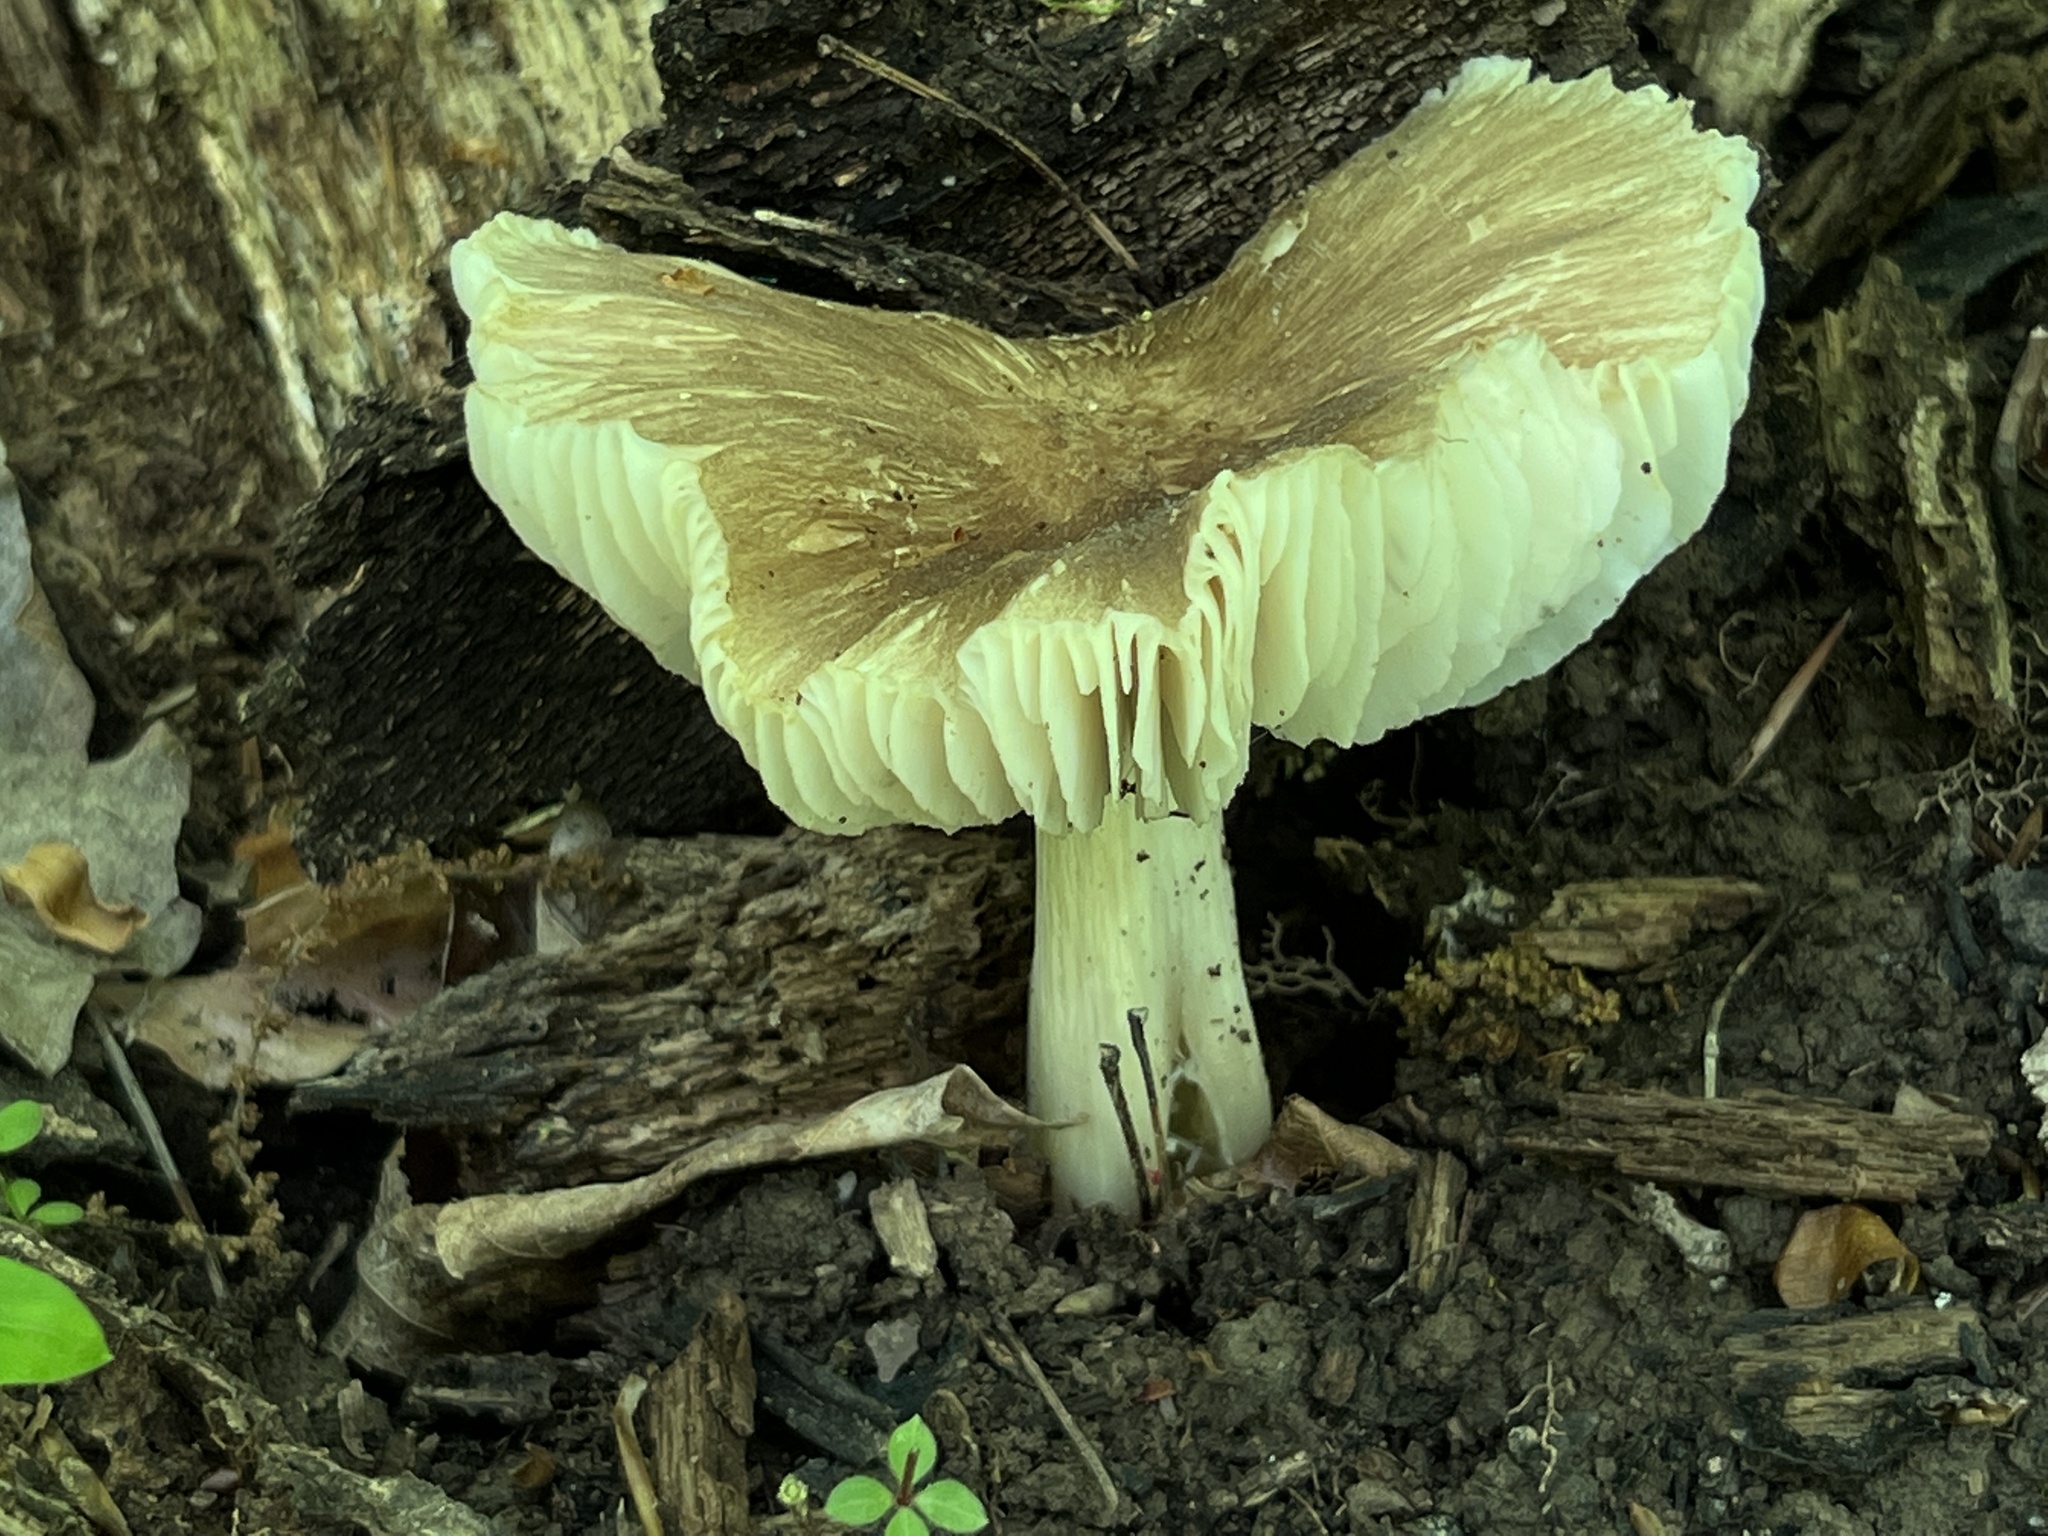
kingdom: Fungi
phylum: Basidiomycota
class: Agaricomycetes
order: Agaricales
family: Tricholomataceae
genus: Megacollybia
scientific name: Megacollybia rodmanii
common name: Eastern american platterful mushroom
